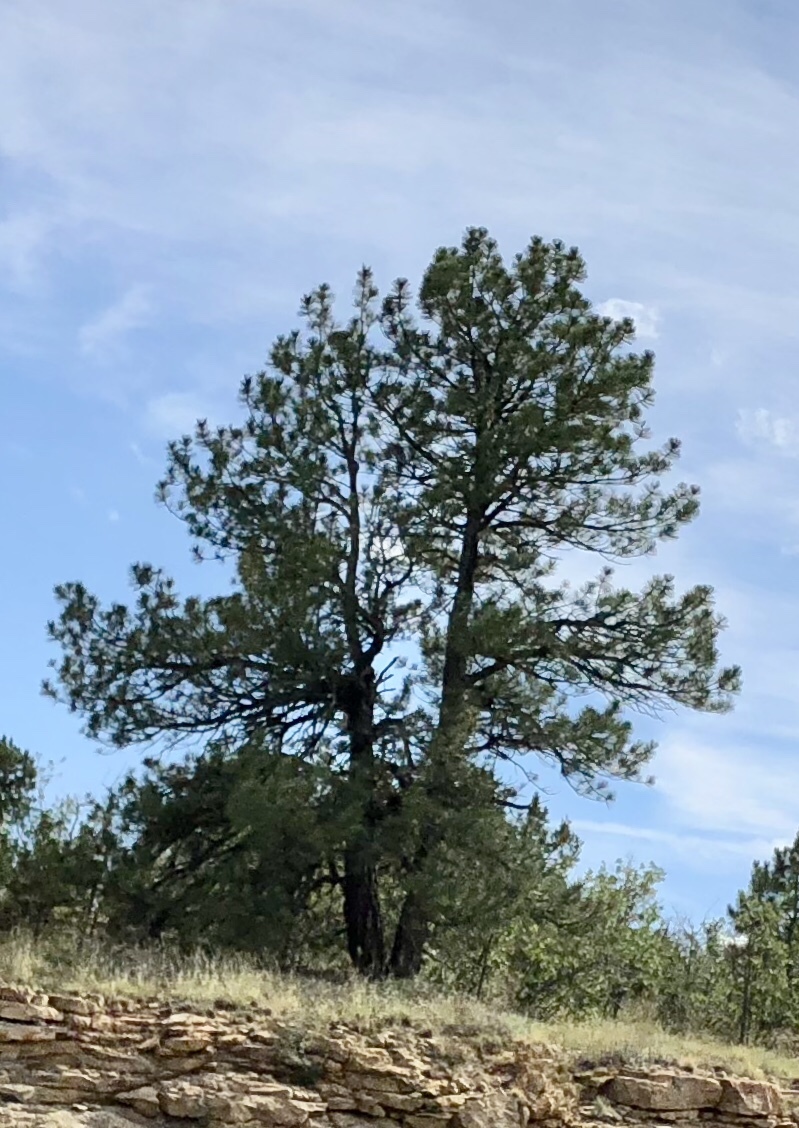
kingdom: Plantae
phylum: Tracheophyta
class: Pinopsida
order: Pinales
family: Pinaceae
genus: Pinus
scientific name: Pinus ponderosa
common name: Western yellow-pine
